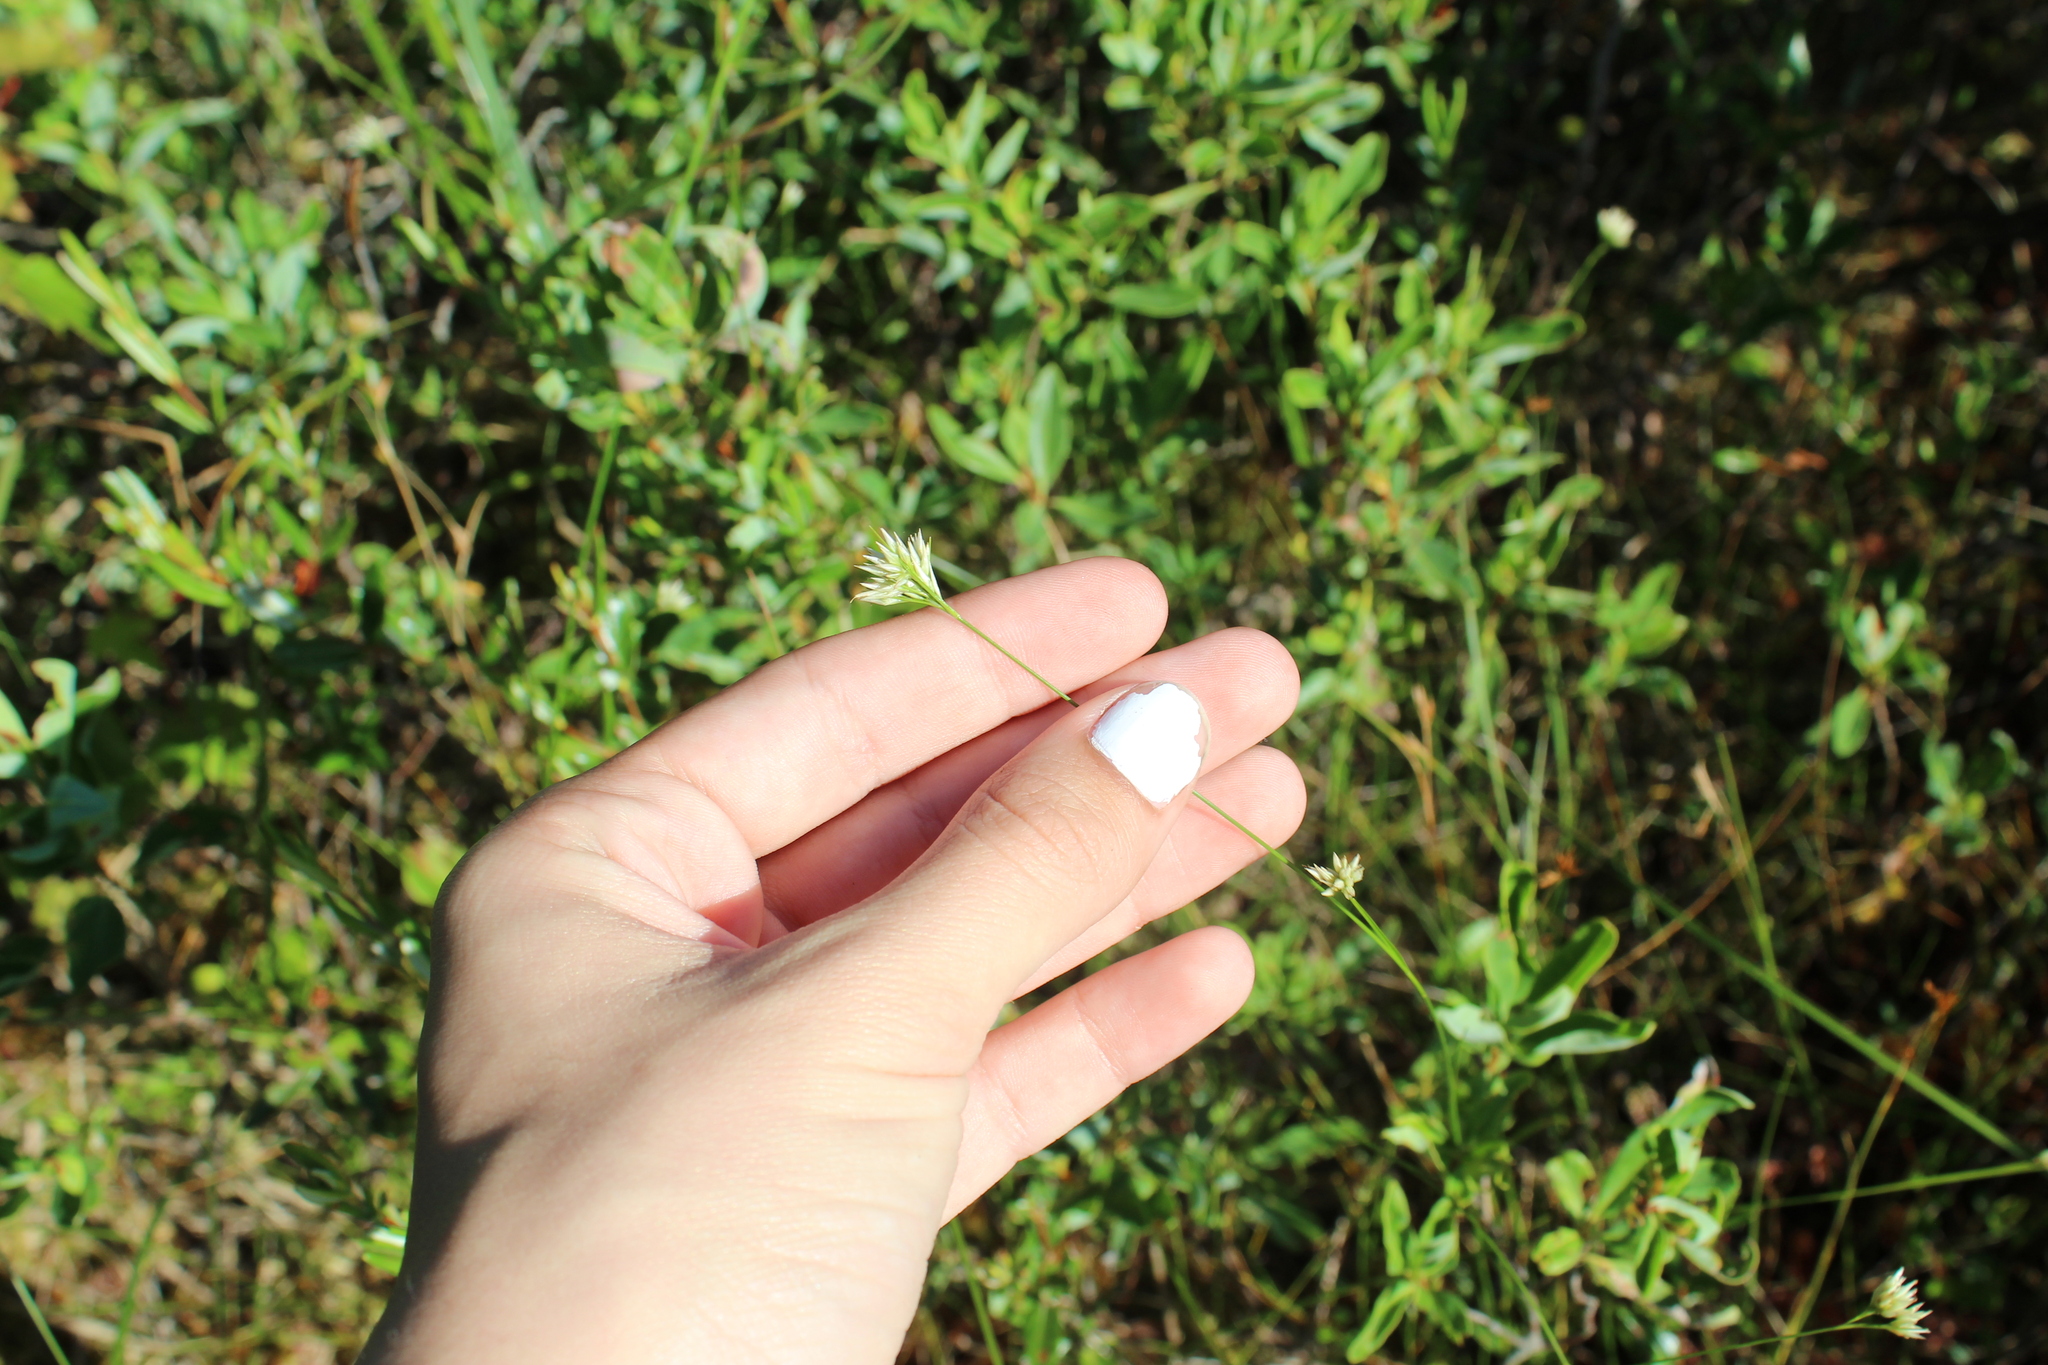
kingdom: Plantae
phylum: Tracheophyta
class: Liliopsida
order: Poales
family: Cyperaceae
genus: Rhynchospora
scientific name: Rhynchospora alba
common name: White beak-sedge
